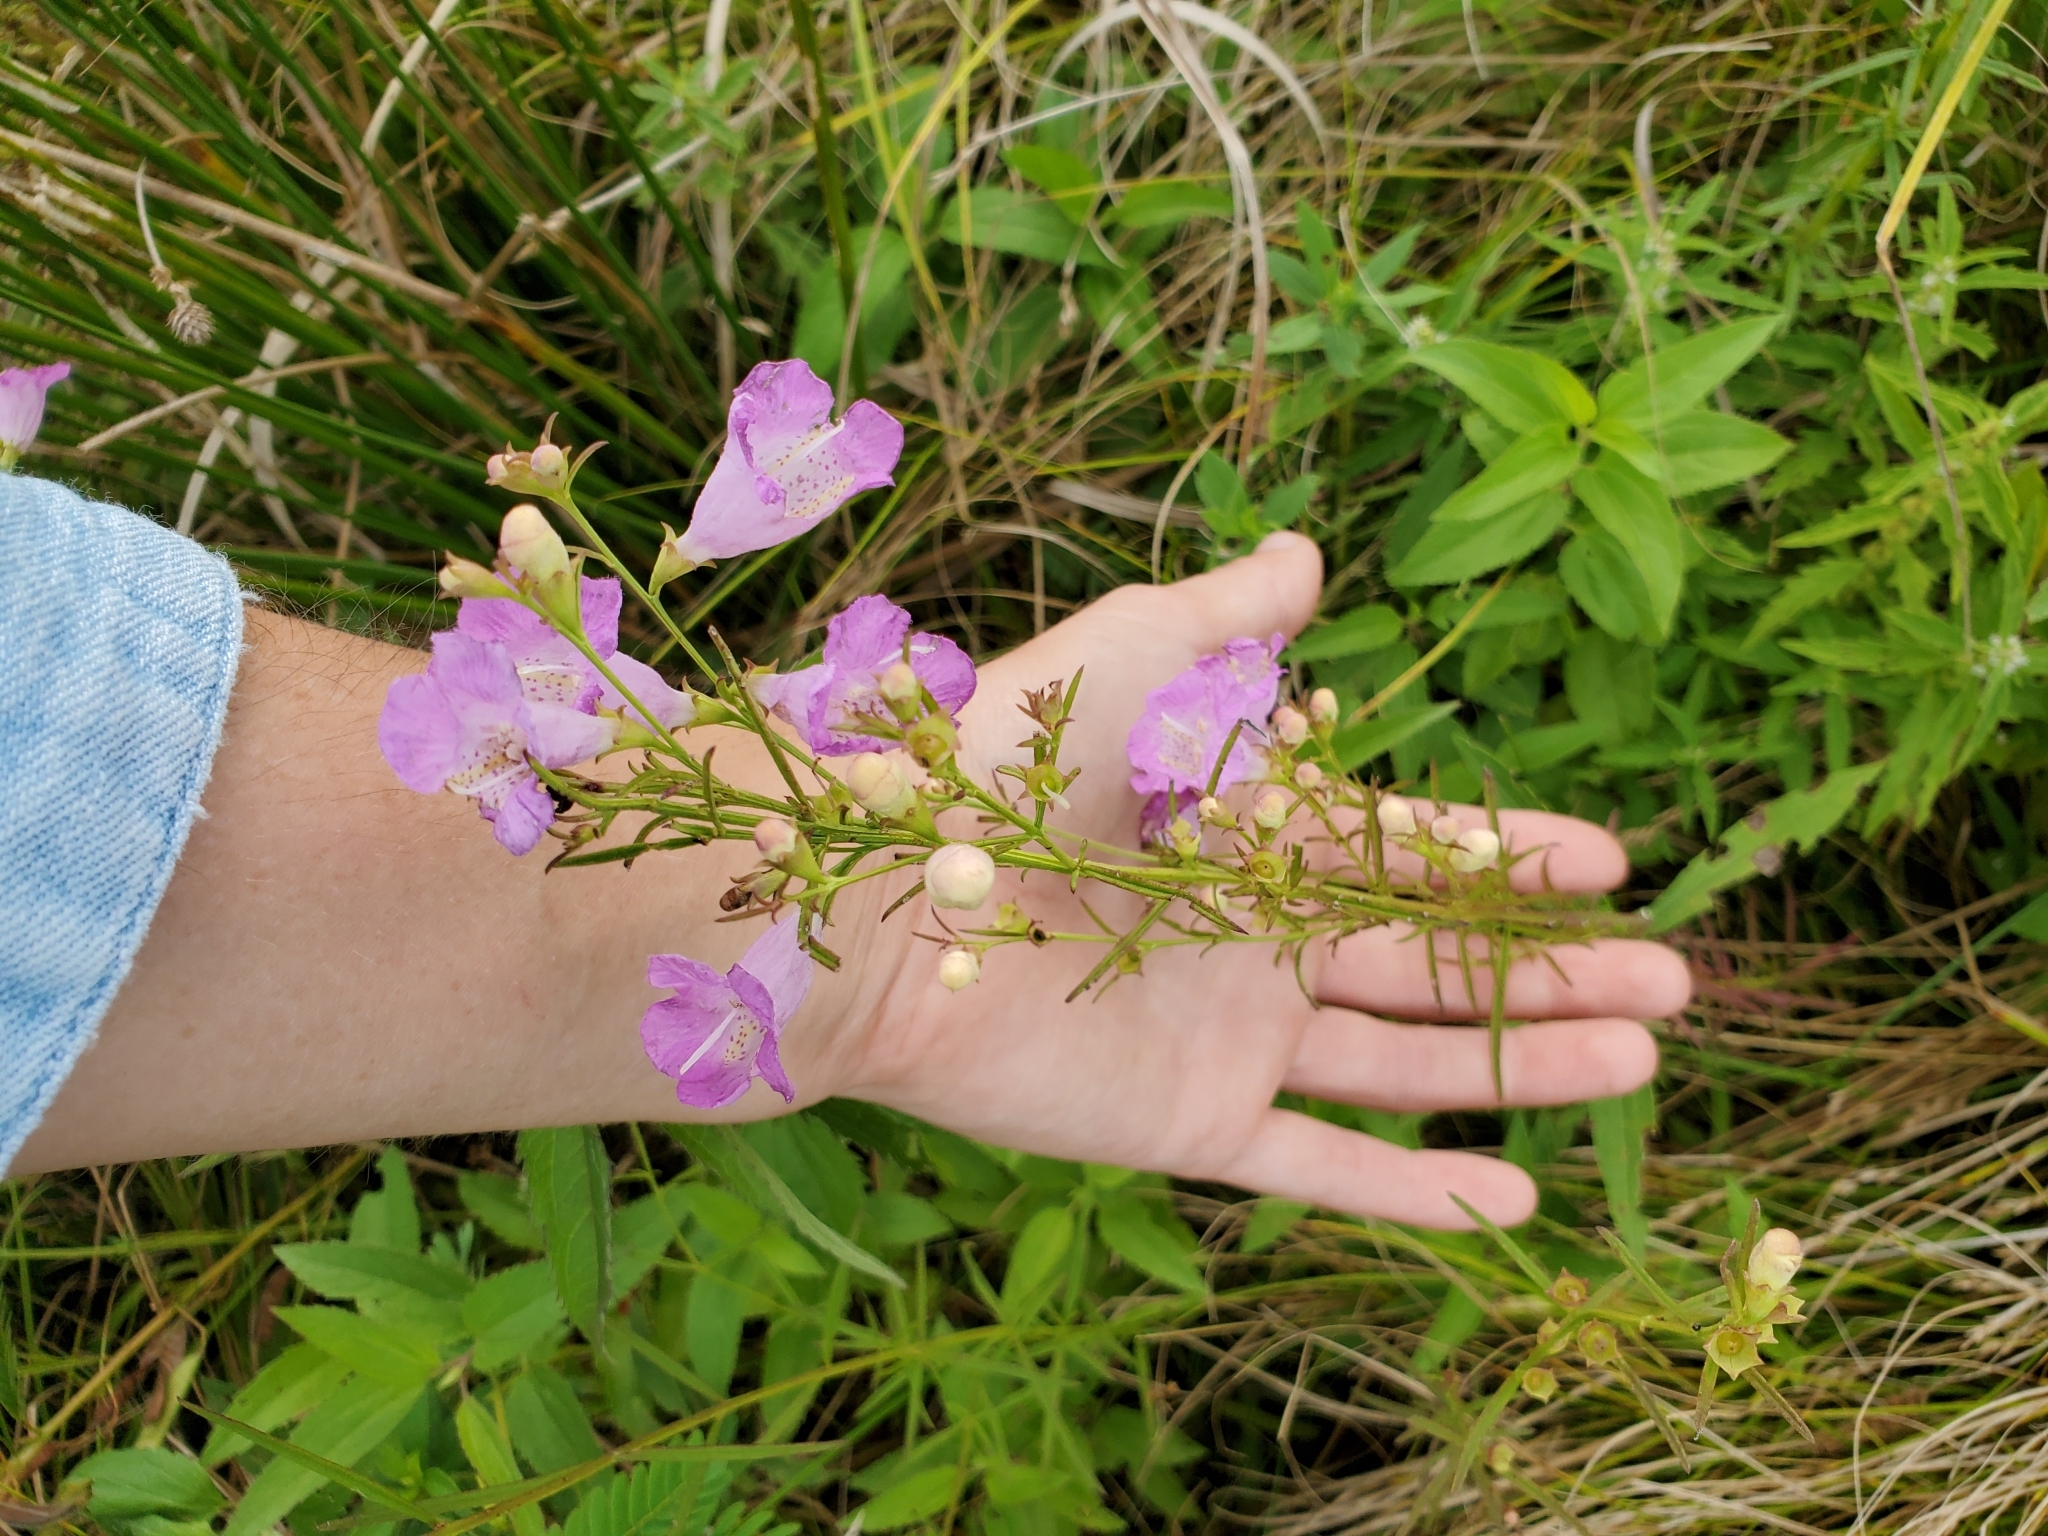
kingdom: Plantae
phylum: Tracheophyta
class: Magnoliopsida
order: Lamiales
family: Orobanchaceae
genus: Agalinis
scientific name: Agalinis purpurea
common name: Purple false foxglove
